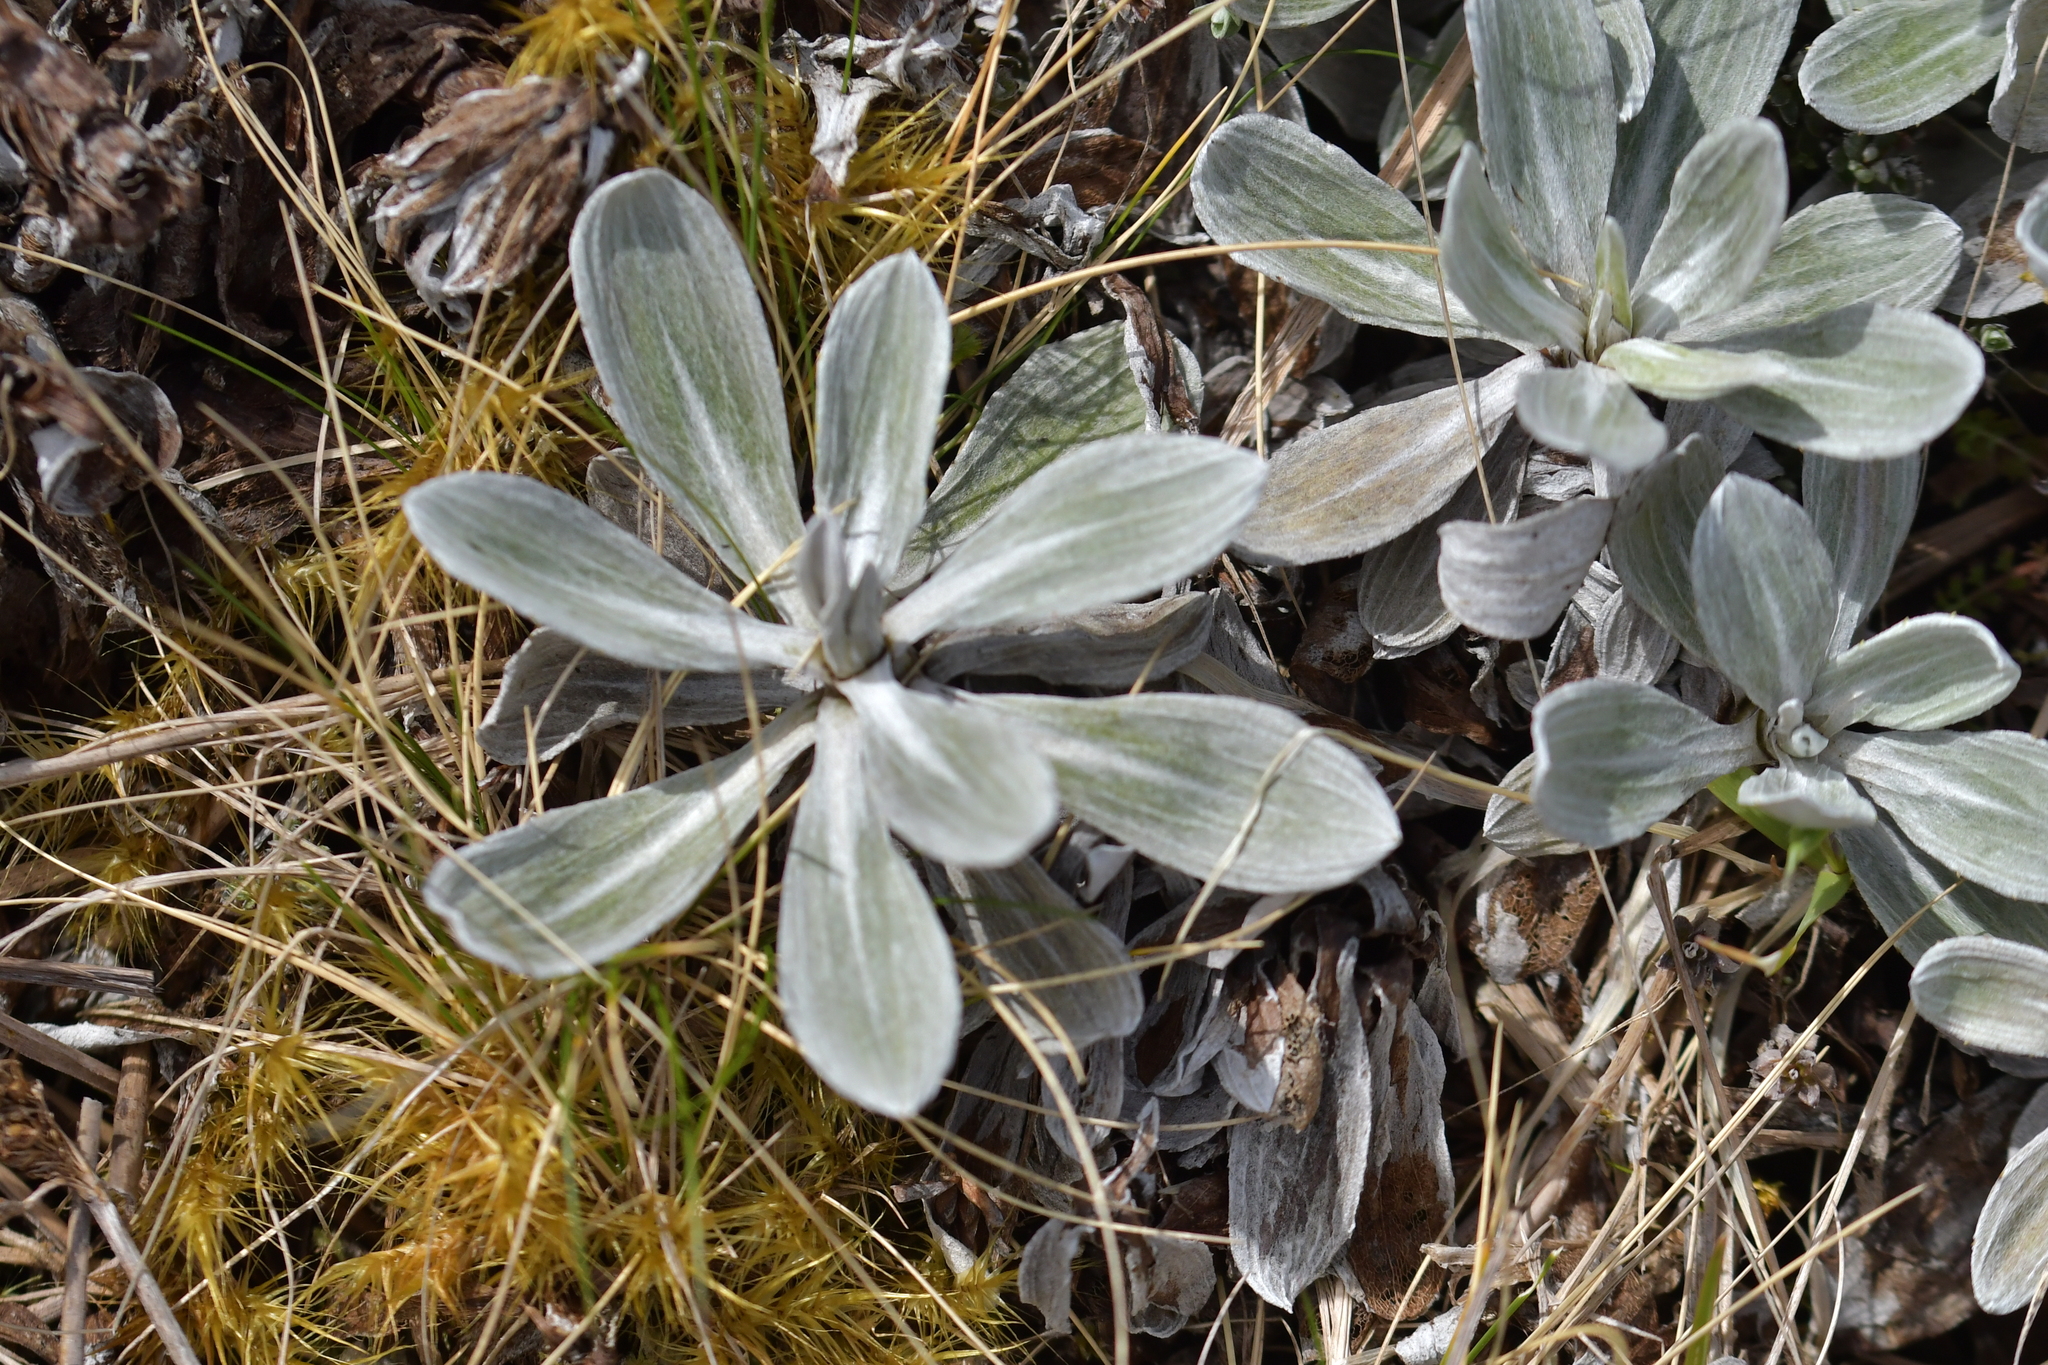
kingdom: Plantae
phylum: Tracheophyta
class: Magnoliopsida
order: Asterales
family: Asteraceae
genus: Celmisia
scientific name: Celmisia discolor
